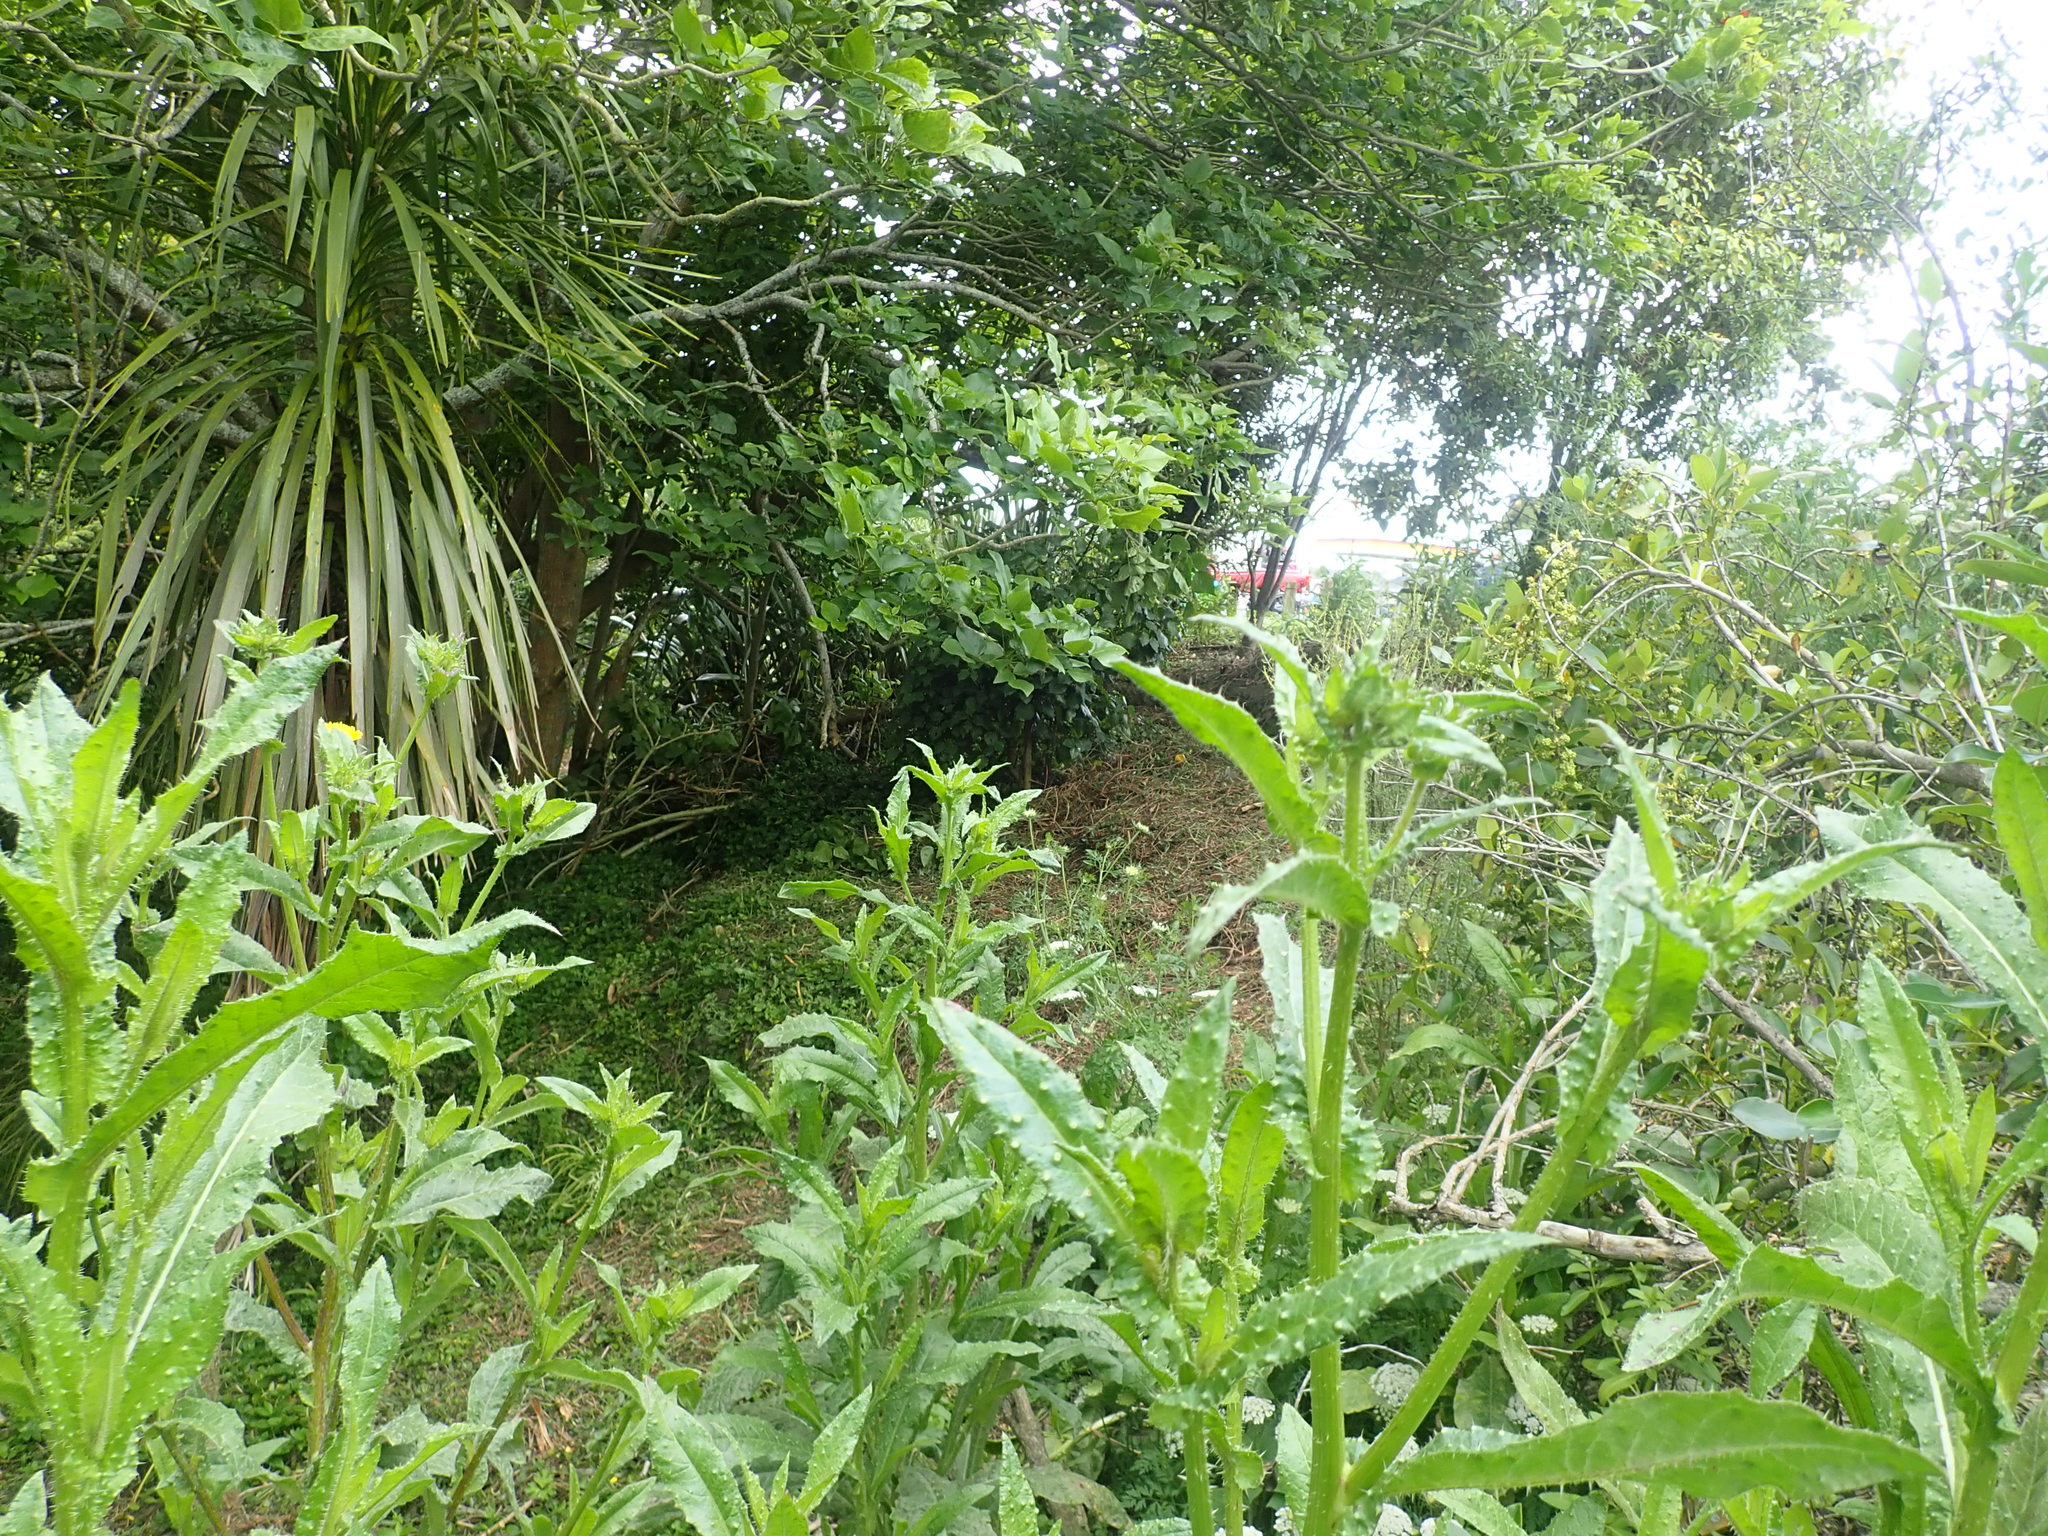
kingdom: Plantae
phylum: Tracheophyta
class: Magnoliopsida
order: Asterales
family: Asteraceae
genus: Helminthotheca
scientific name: Helminthotheca echioides
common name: Ox-tongue
